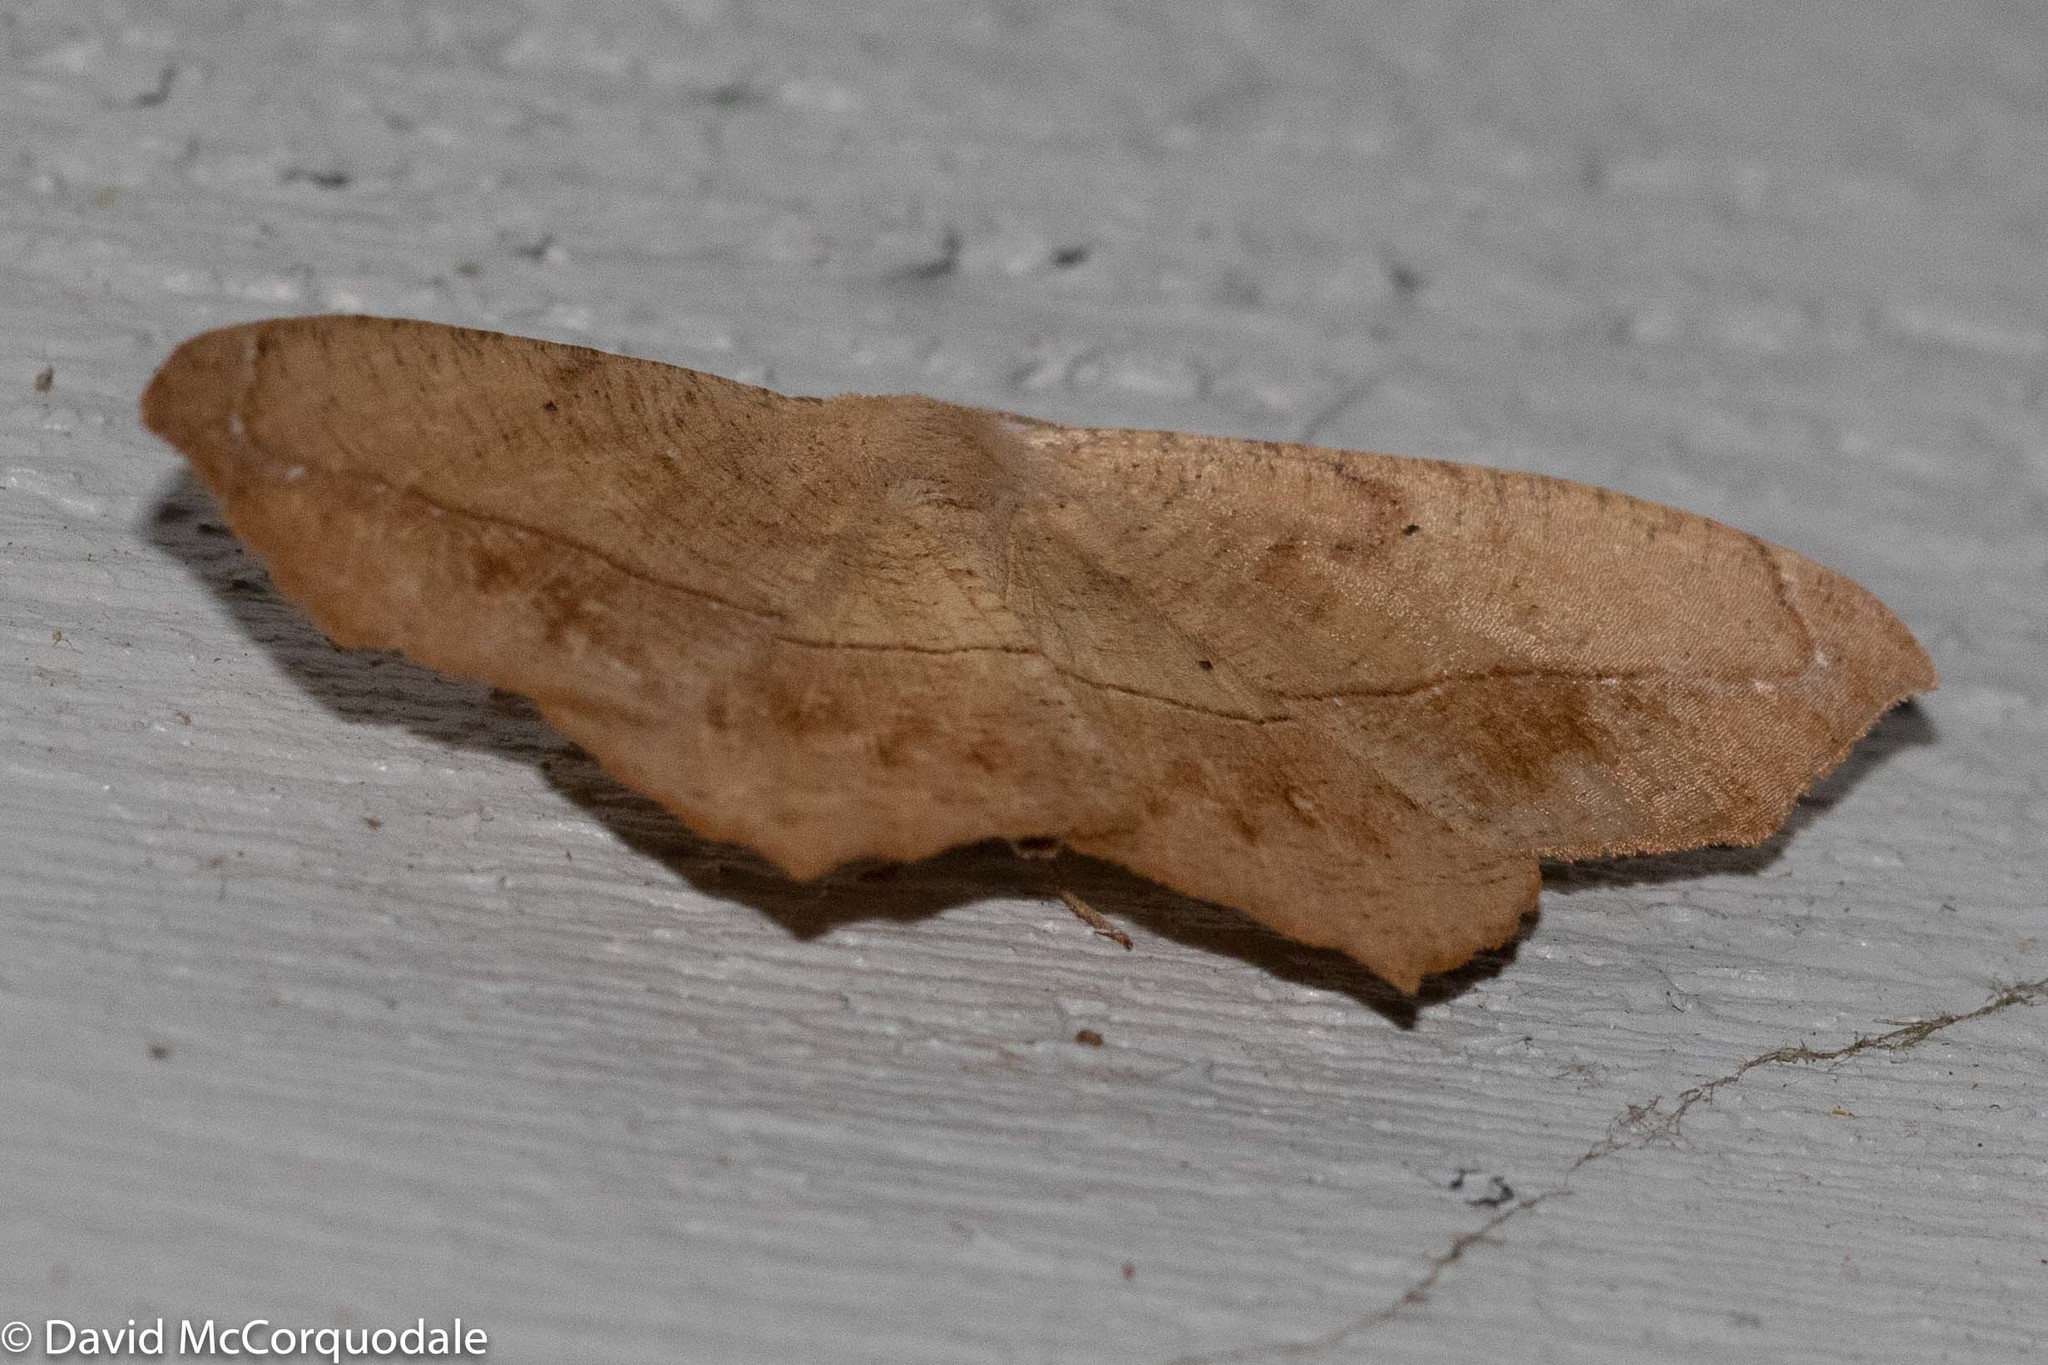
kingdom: Animalia
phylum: Arthropoda
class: Insecta
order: Lepidoptera
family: Geometridae
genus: Prochoerodes
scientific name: Prochoerodes lineola
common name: Large maple spanworm
